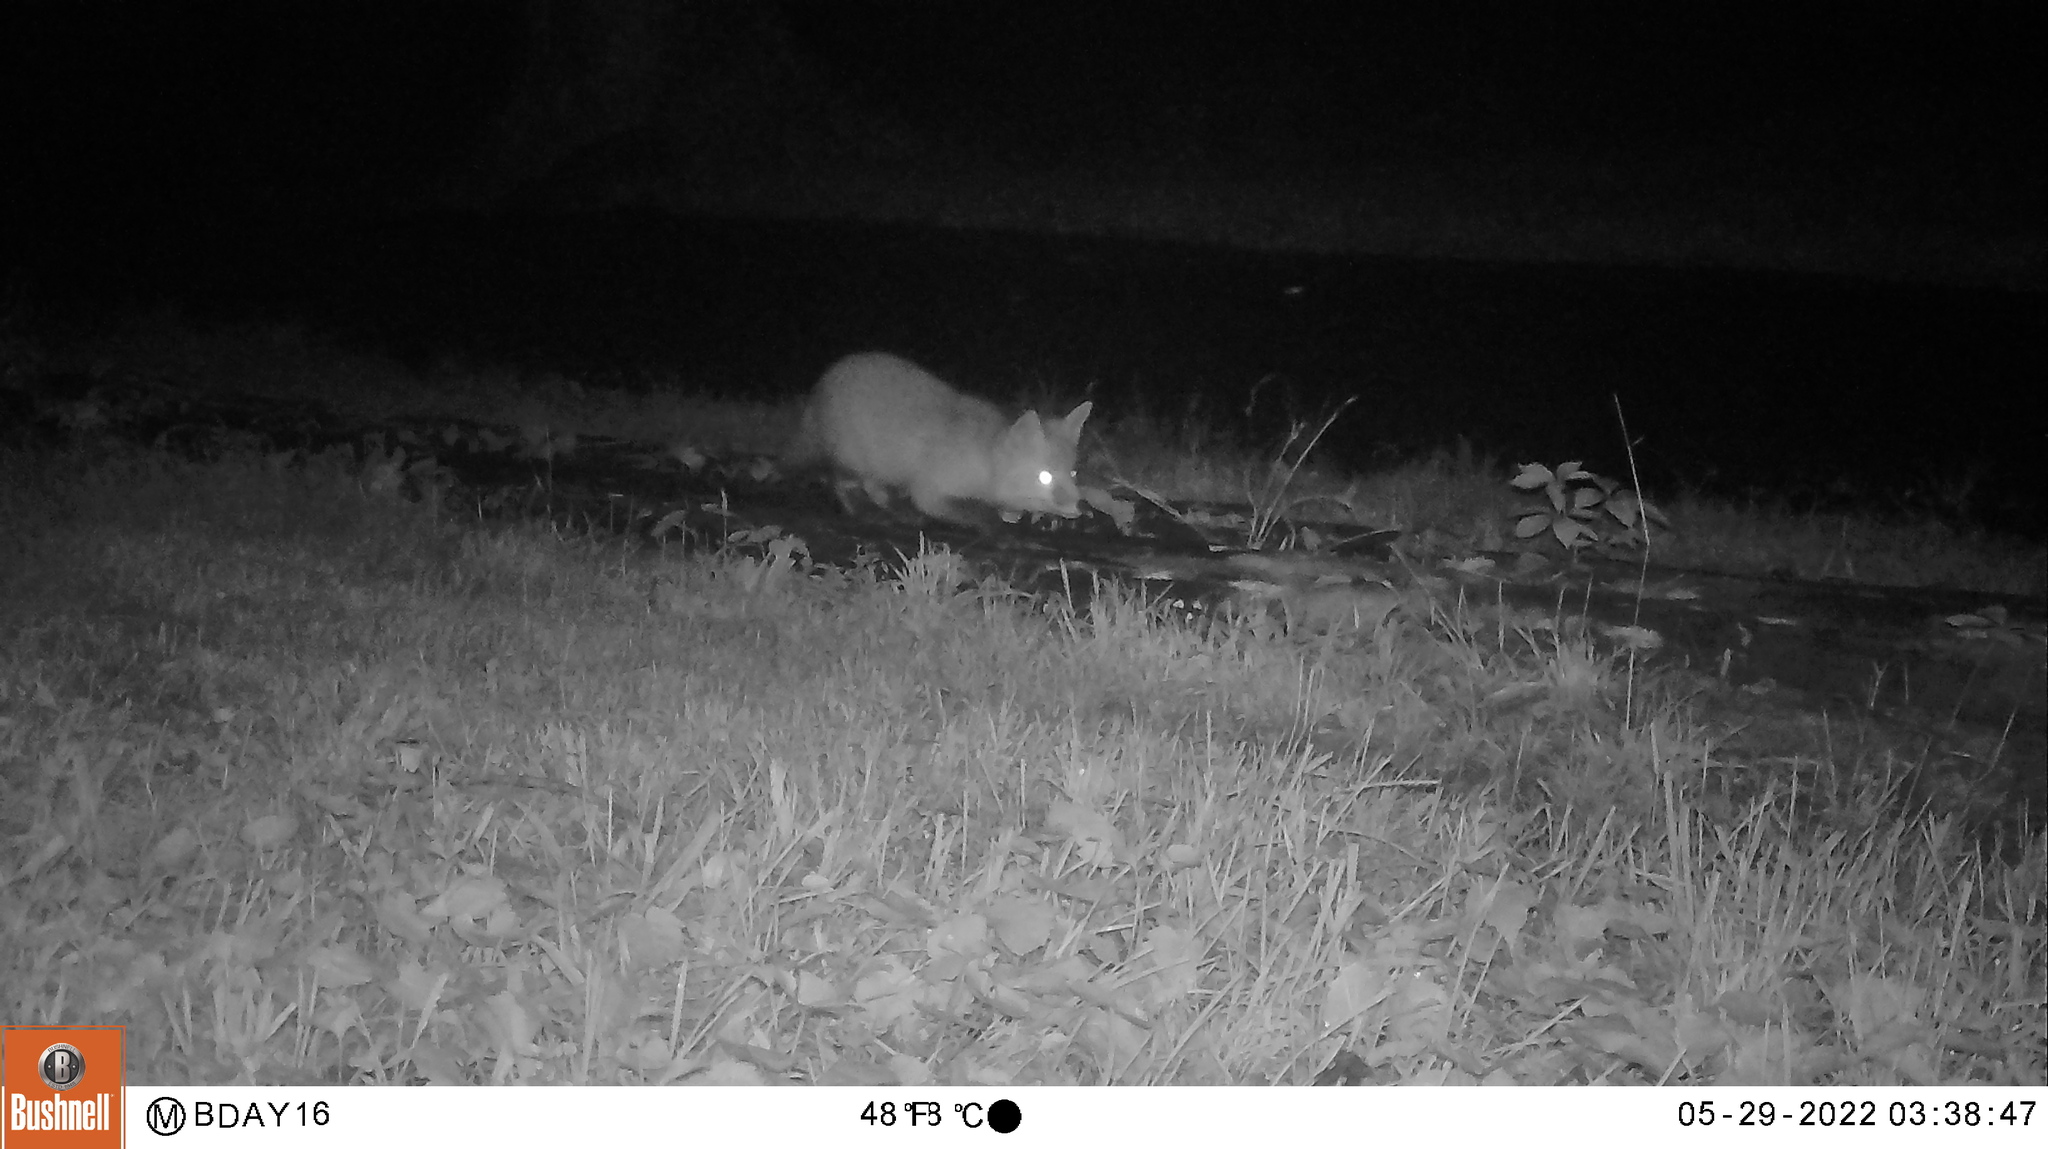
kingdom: Animalia
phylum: Chordata
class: Mammalia
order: Carnivora
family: Canidae
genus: Vulpes
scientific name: Vulpes vulpes
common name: Red fox
